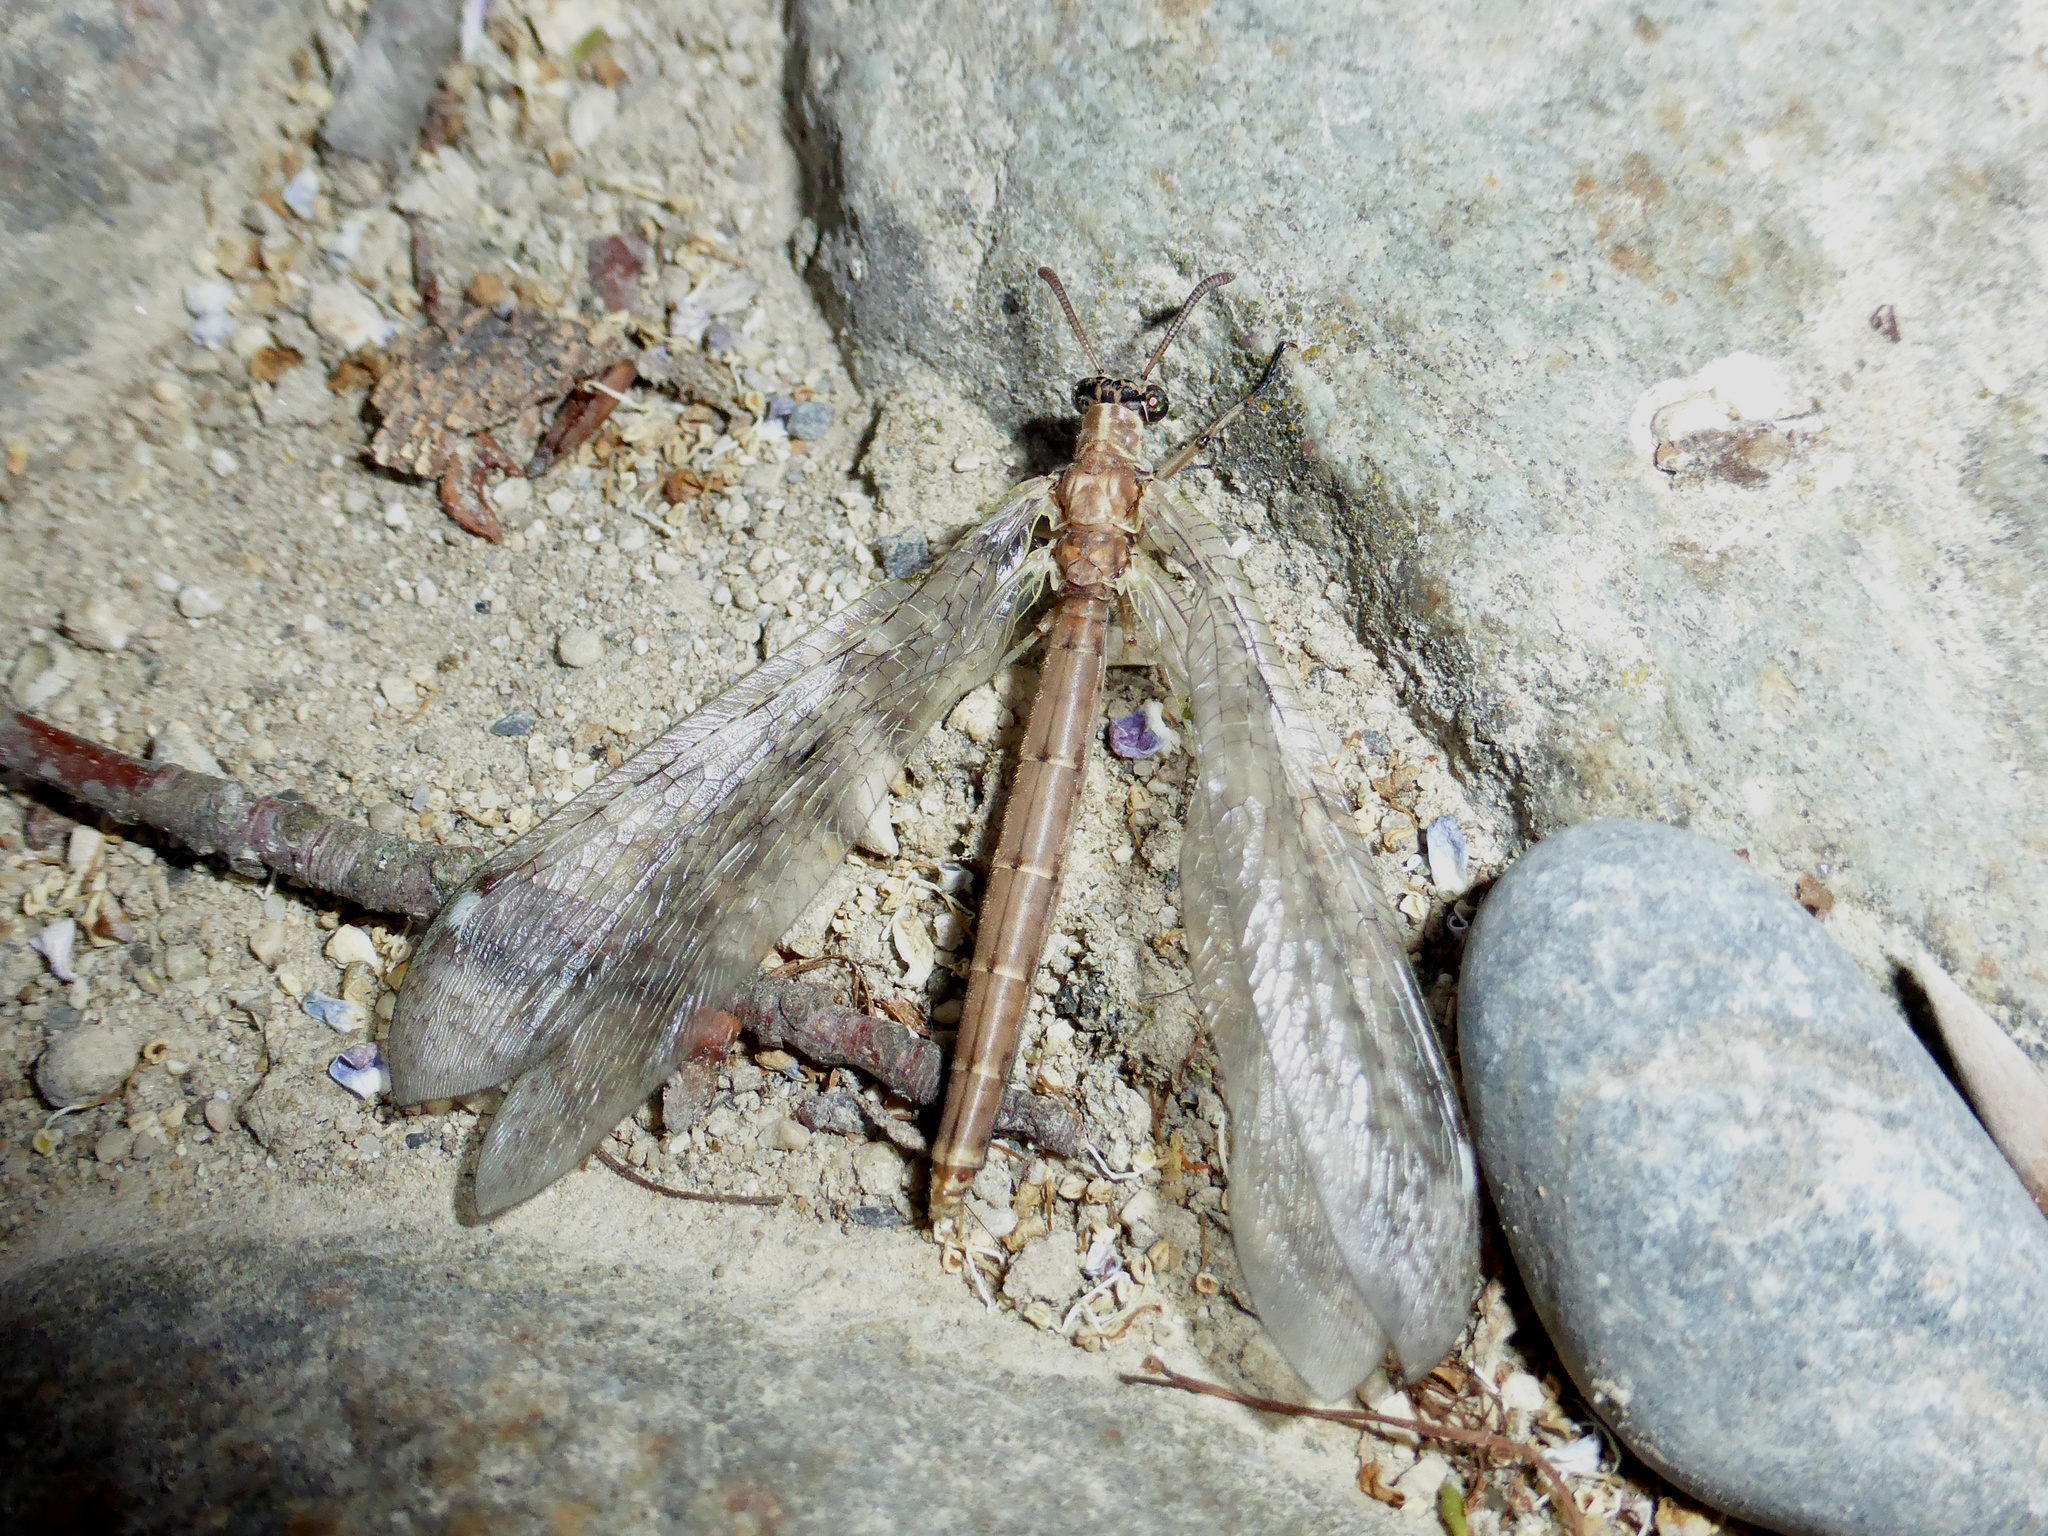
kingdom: Animalia
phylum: Arthropoda
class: Insecta
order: Neuroptera
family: Myrmeleontidae
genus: Euroleon
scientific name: Euroleon nostras
